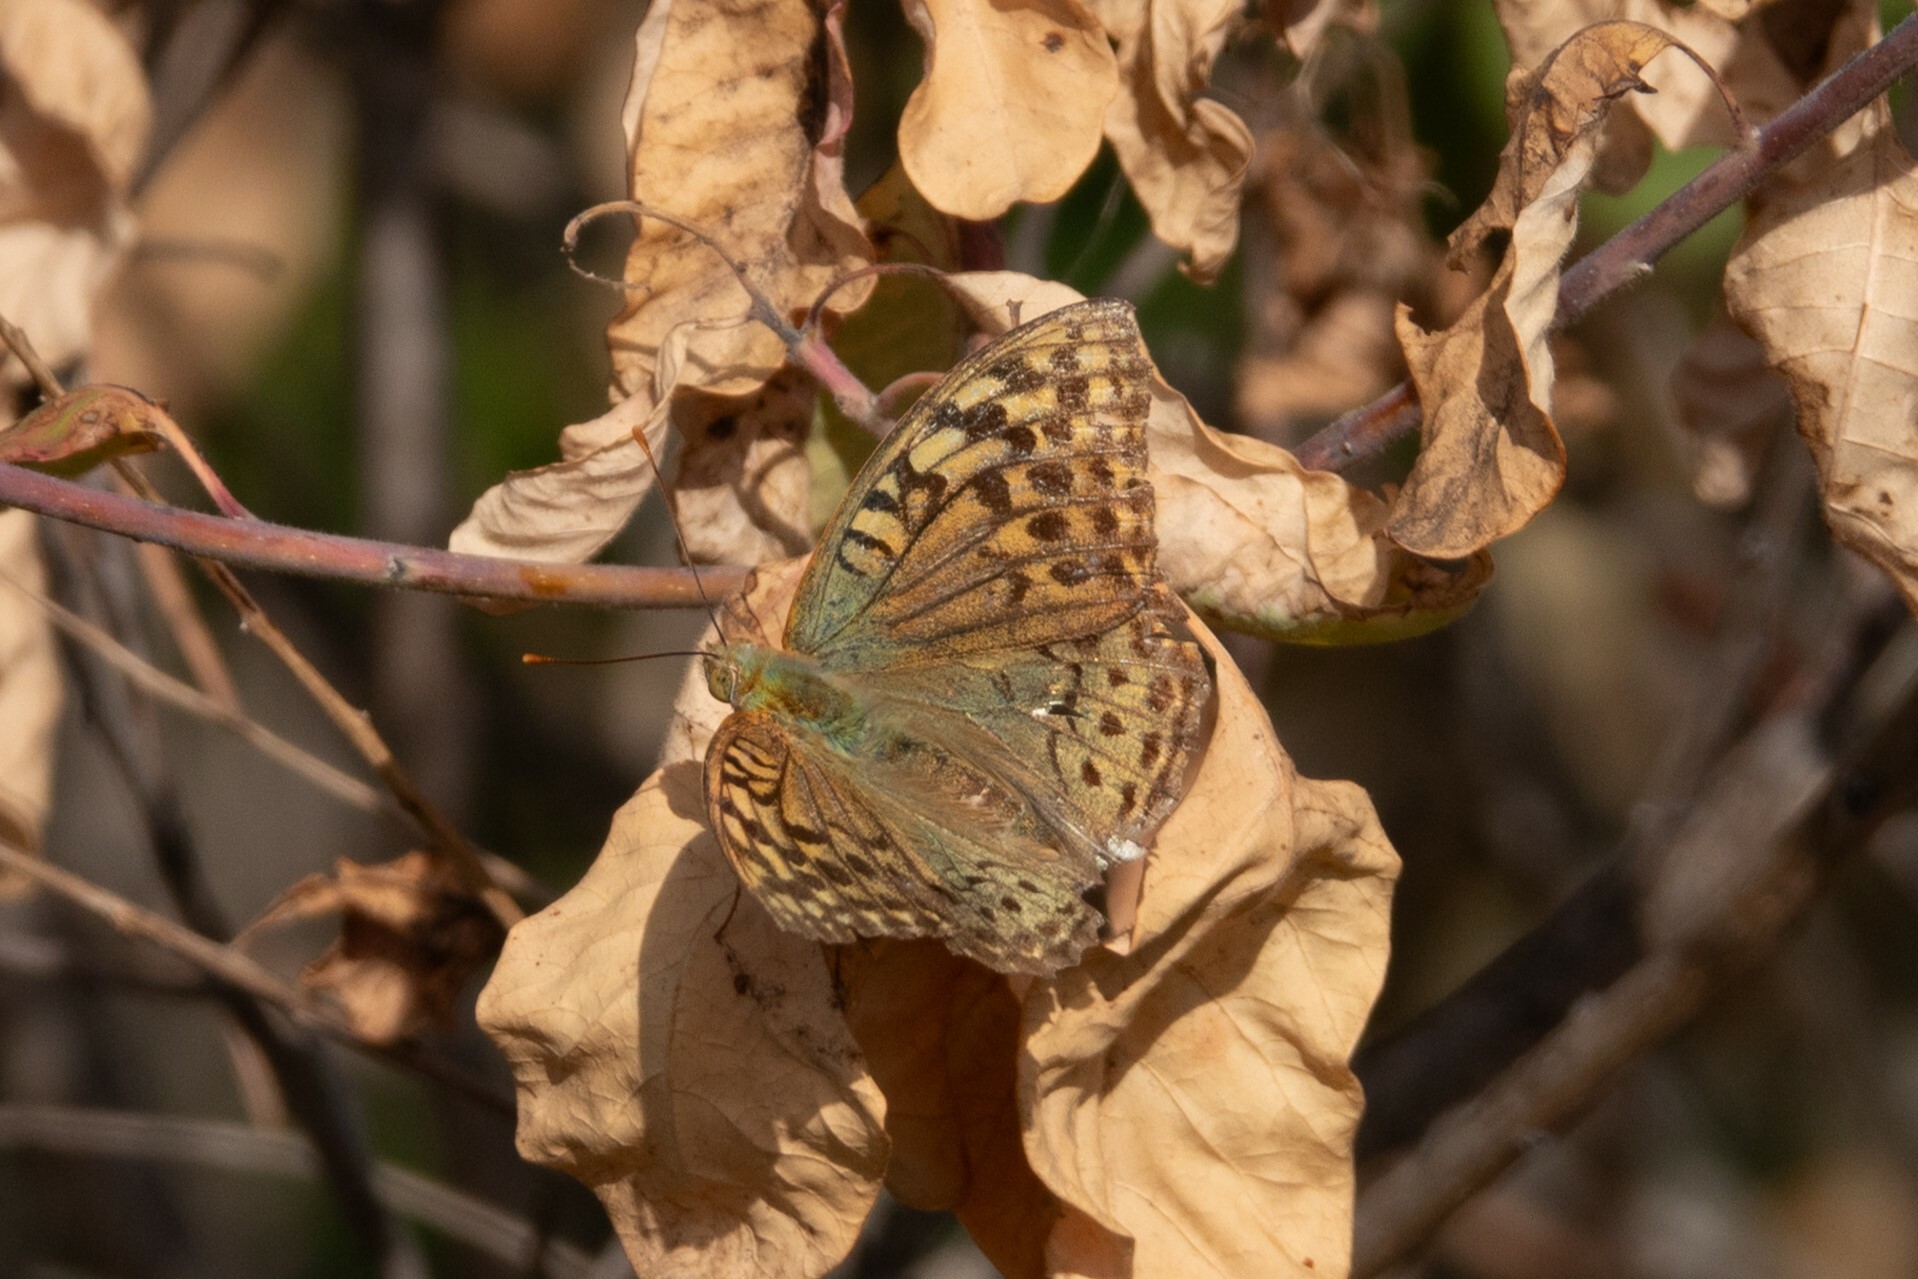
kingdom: Animalia
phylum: Arthropoda
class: Insecta
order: Lepidoptera
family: Nymphalidae
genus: Damora
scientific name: Damora pandora
